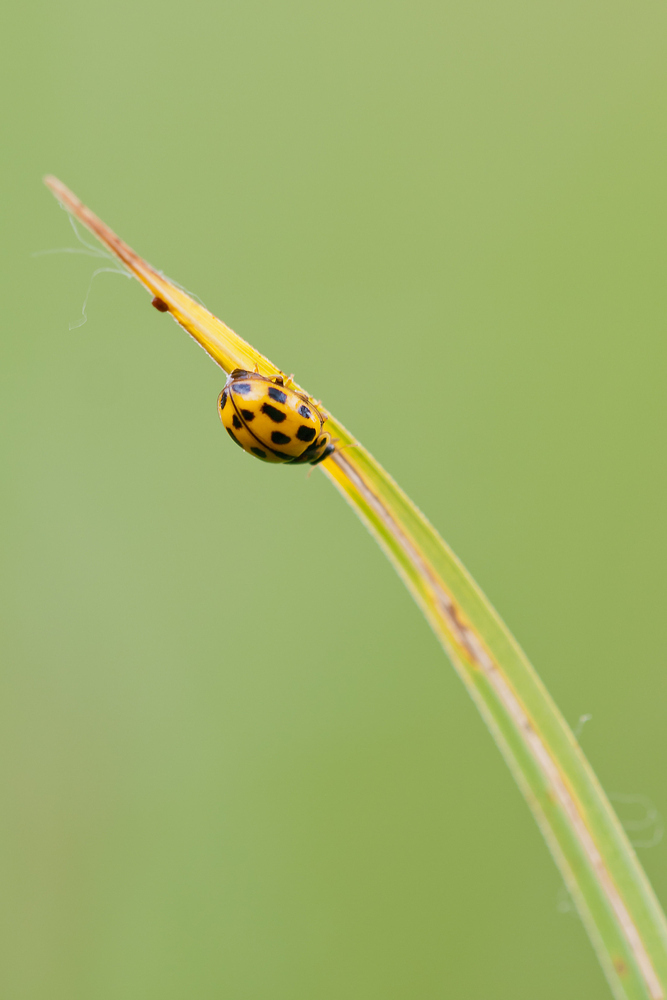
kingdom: Animalia
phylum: Arthropoda
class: Insecta
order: Coleoptera
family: Coccinellidae
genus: Propylaea
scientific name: Propylaea quatuordecimpunctata
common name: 14-spotted ladybird beetle
